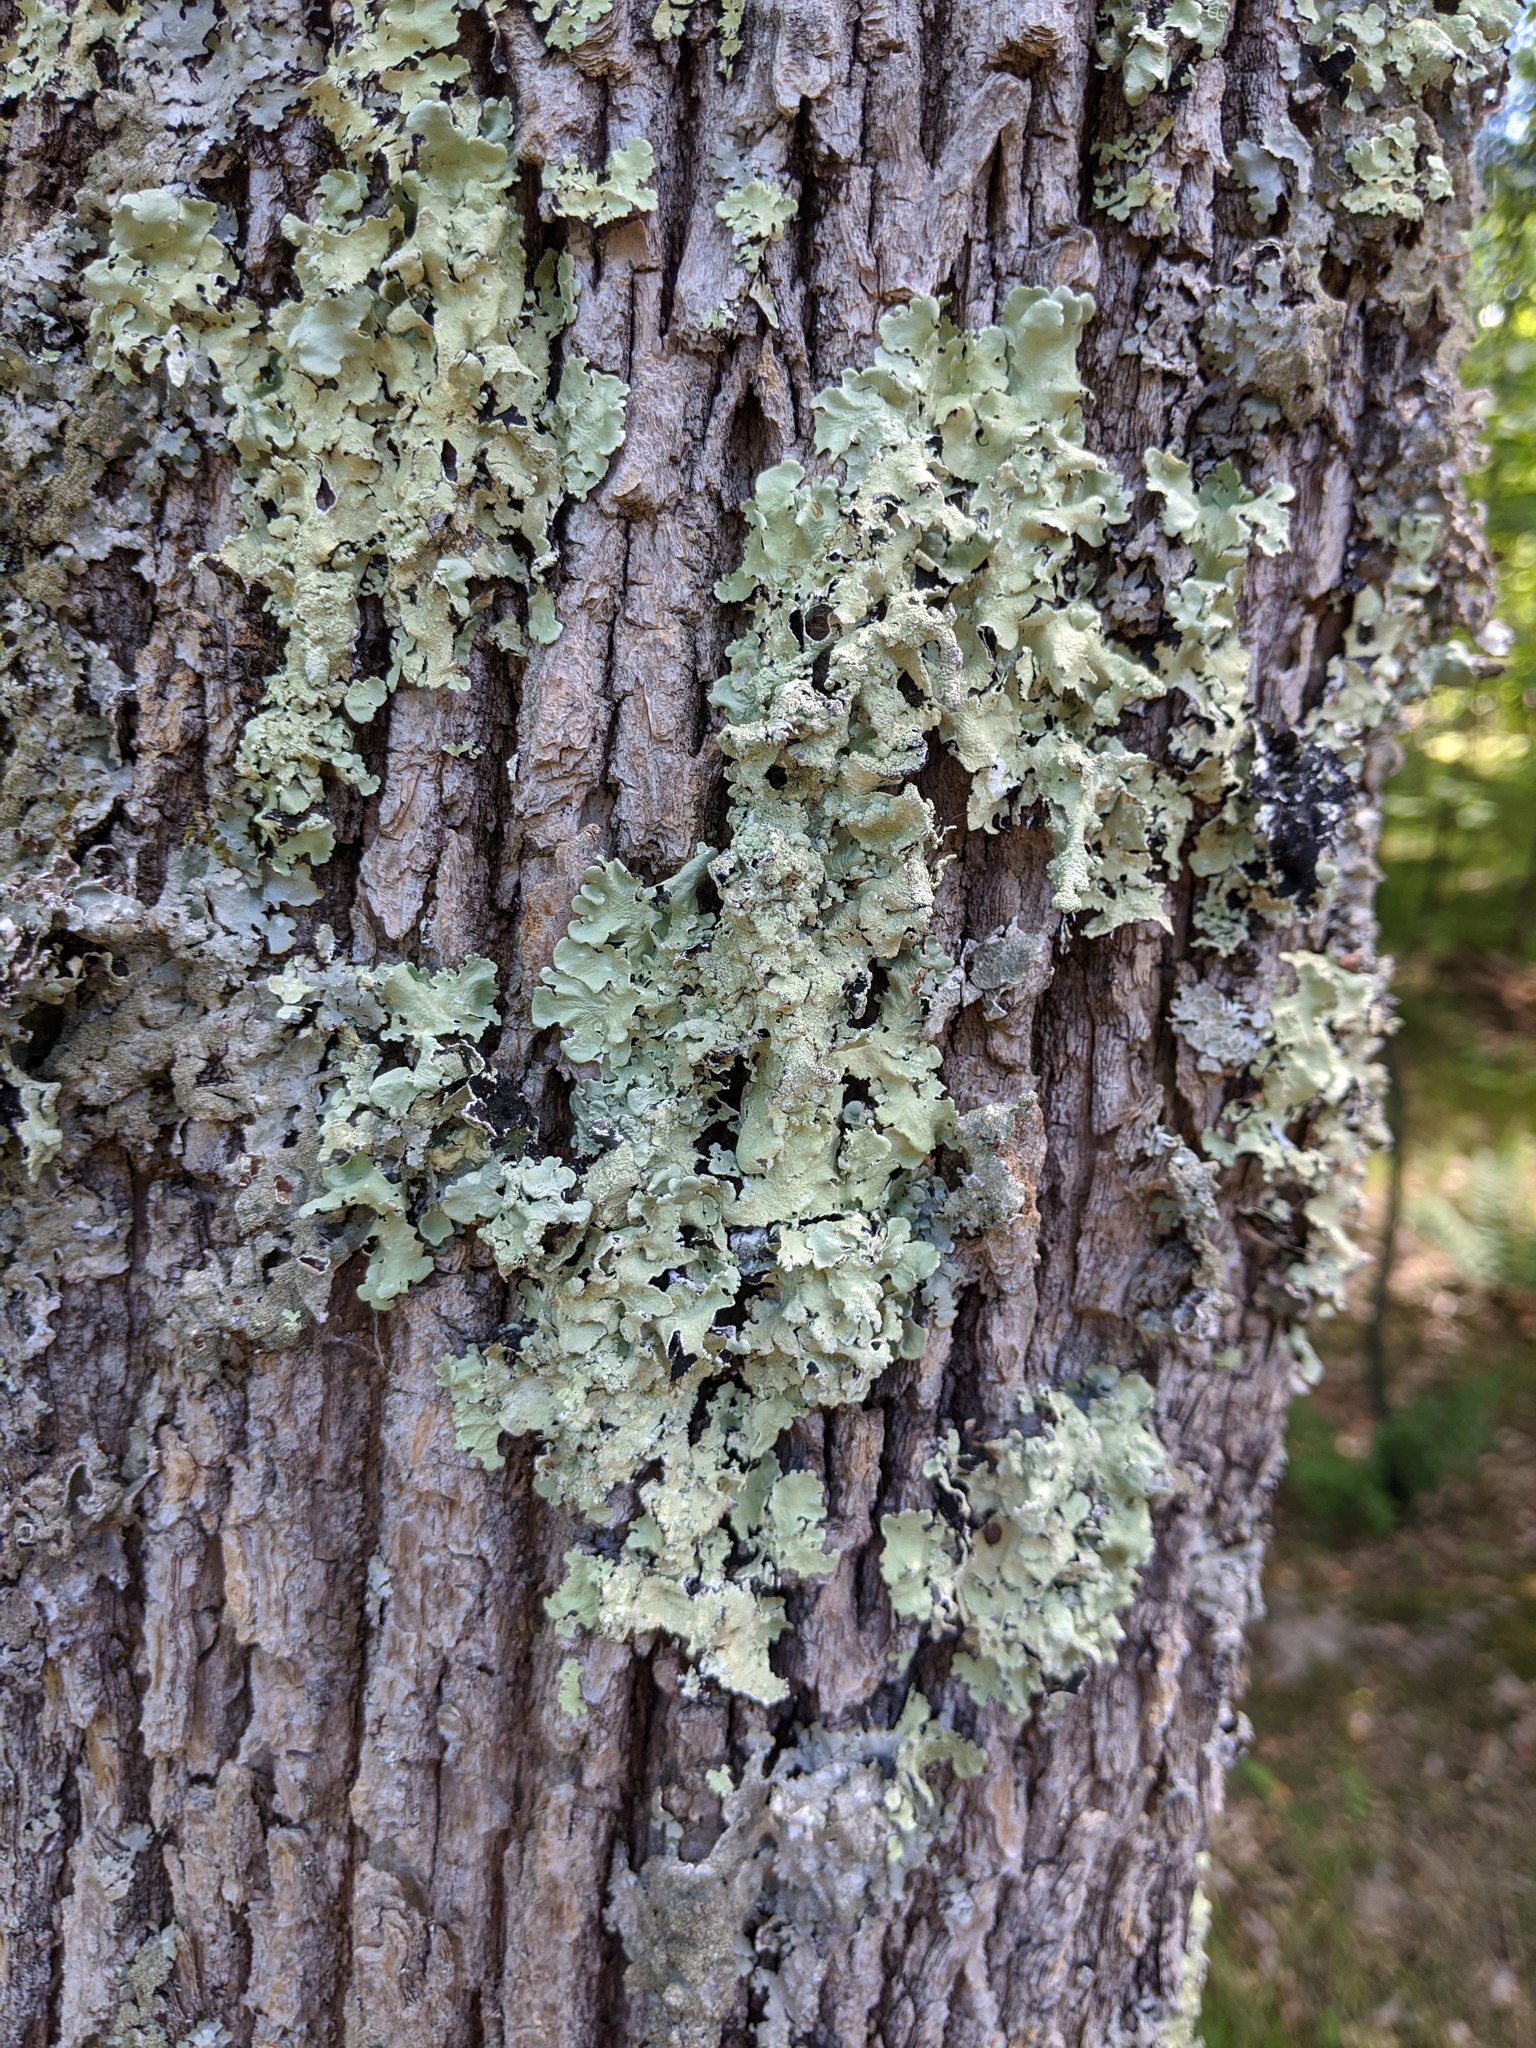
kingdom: Fungi
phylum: Ascomycota
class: Lecanoromycetes
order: Lecanorales
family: Parmeliaceae
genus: Flavoparmelia
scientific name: Flavoparmelia caperata
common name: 40-mile per hour lichen
